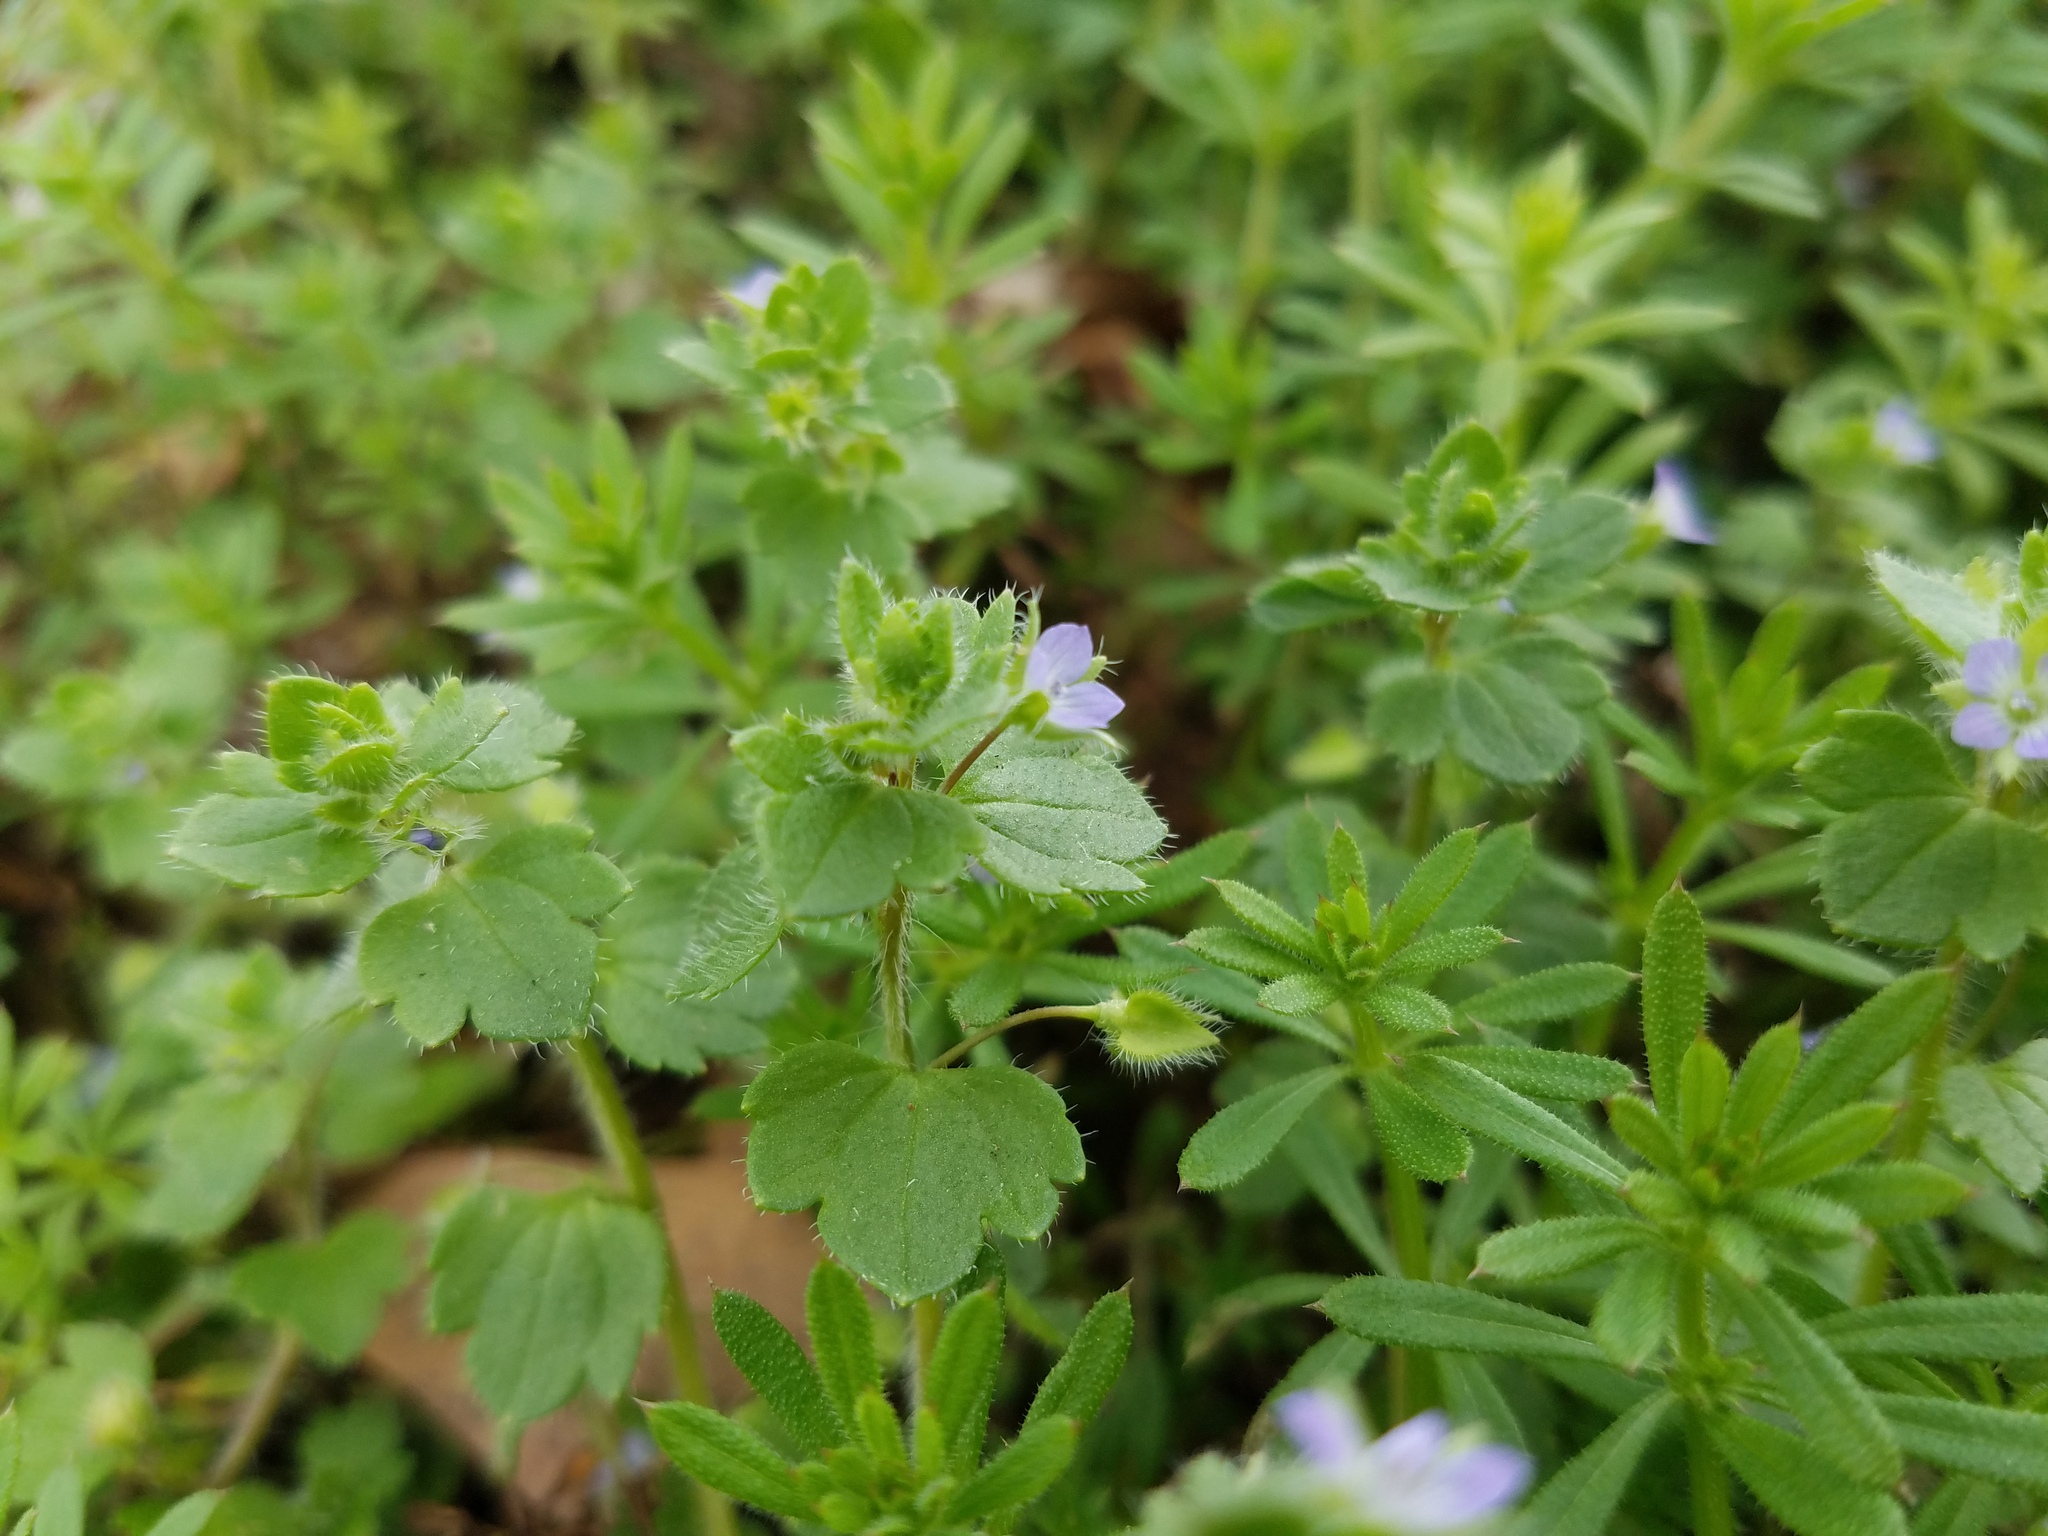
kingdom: Plantae
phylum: Tracheophyta
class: Magnoliopsida
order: Lamiales
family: Plantaginaceae
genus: Veronica
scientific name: Veronica hederifolia
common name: Ivy-leaved speedwell
